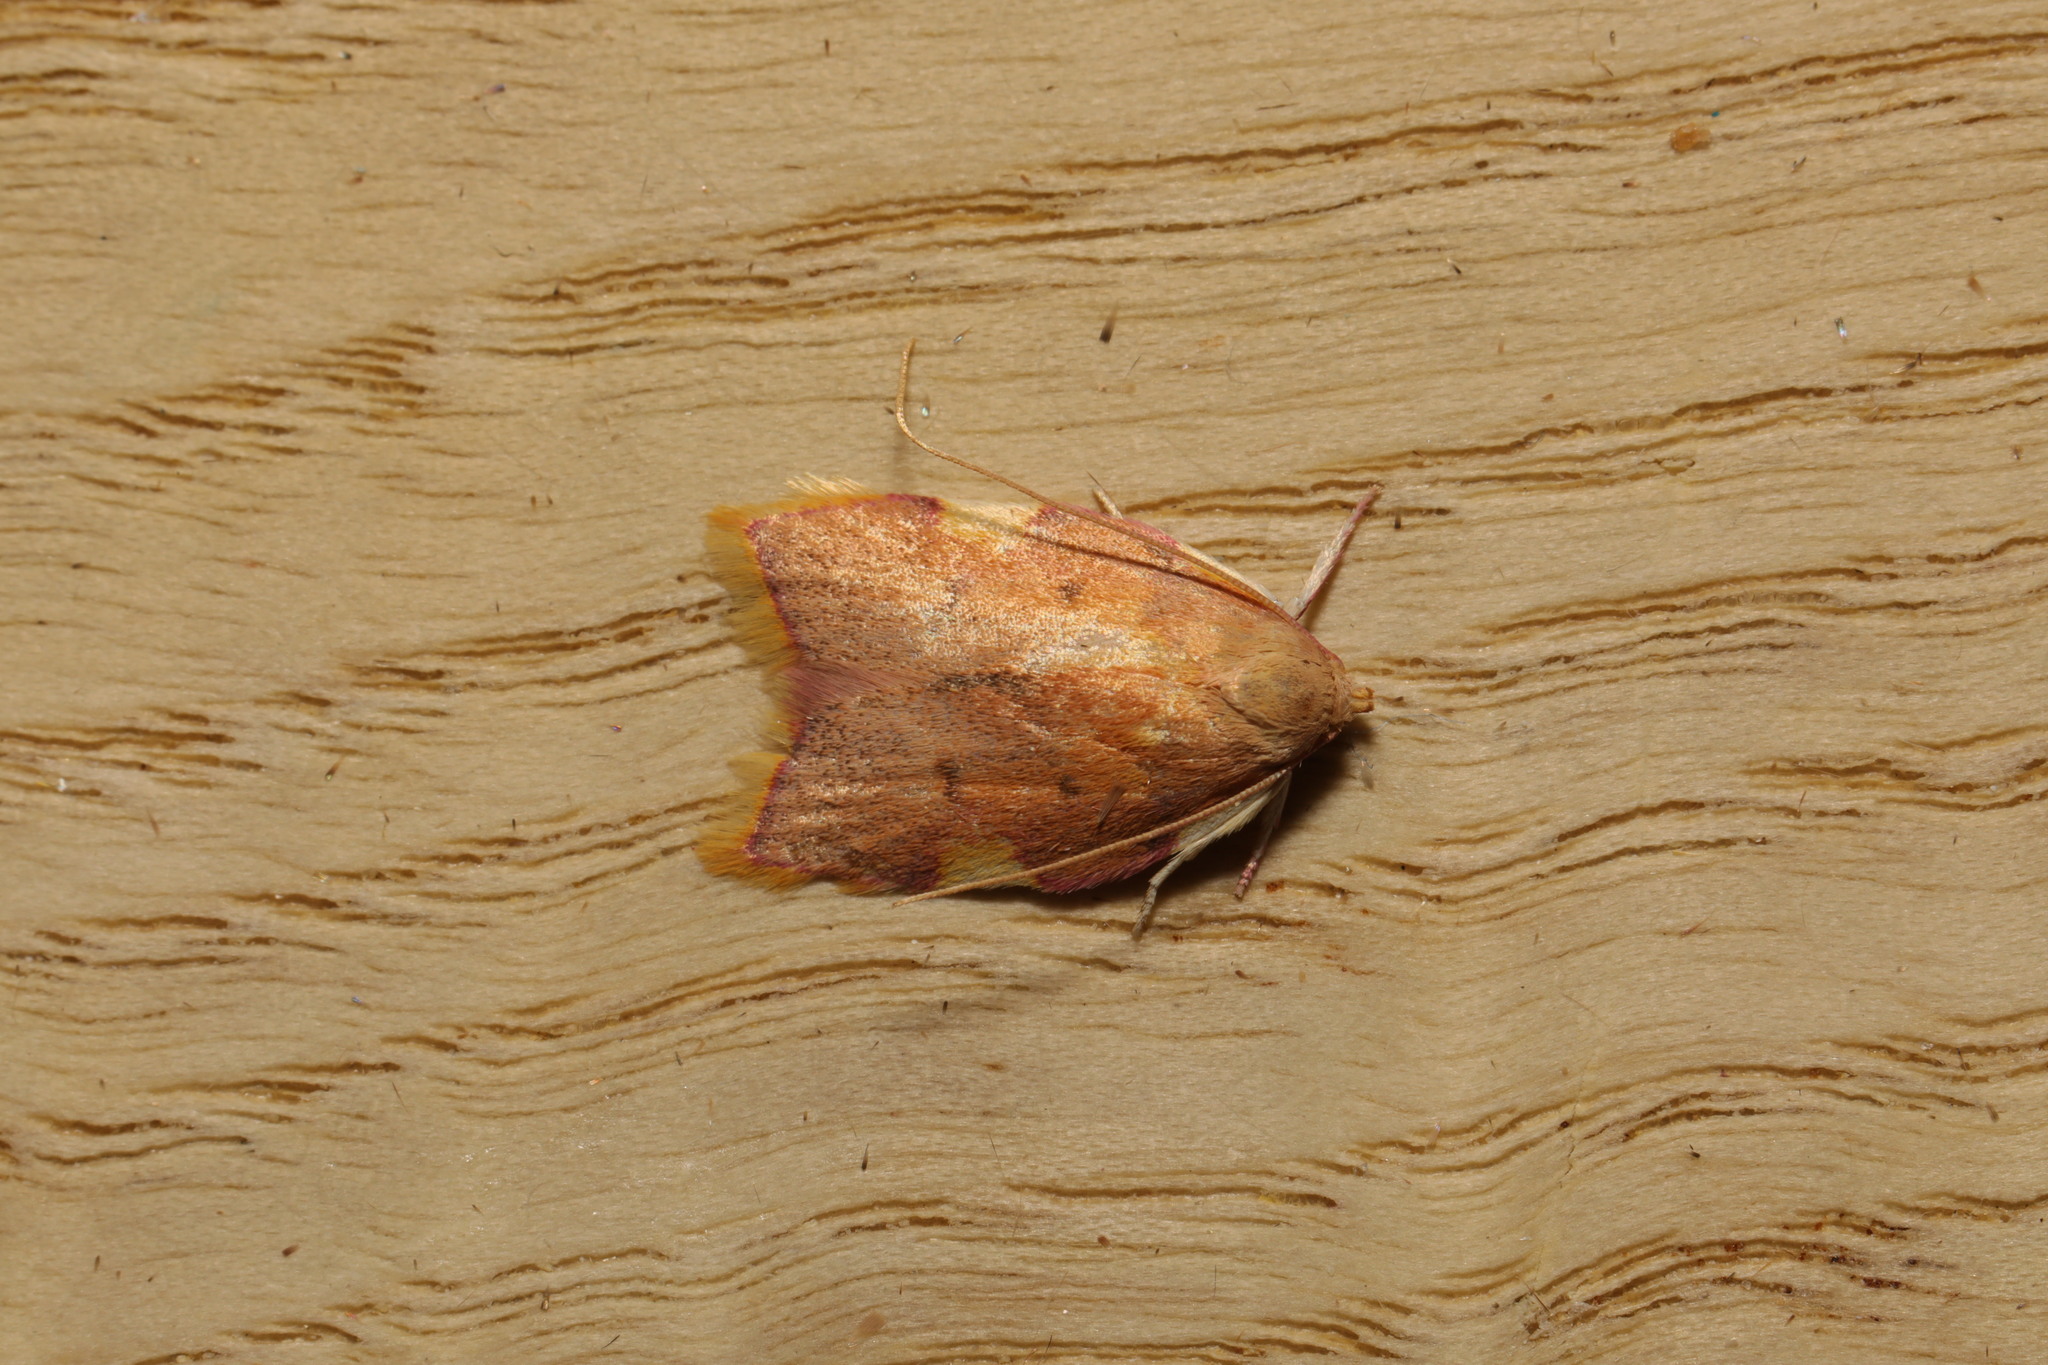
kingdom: Animalia
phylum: Arthropoda
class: Insecta
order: Lepidoptera
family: Peleopodidae
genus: Carcina
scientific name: Carcina quercana
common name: Moth
